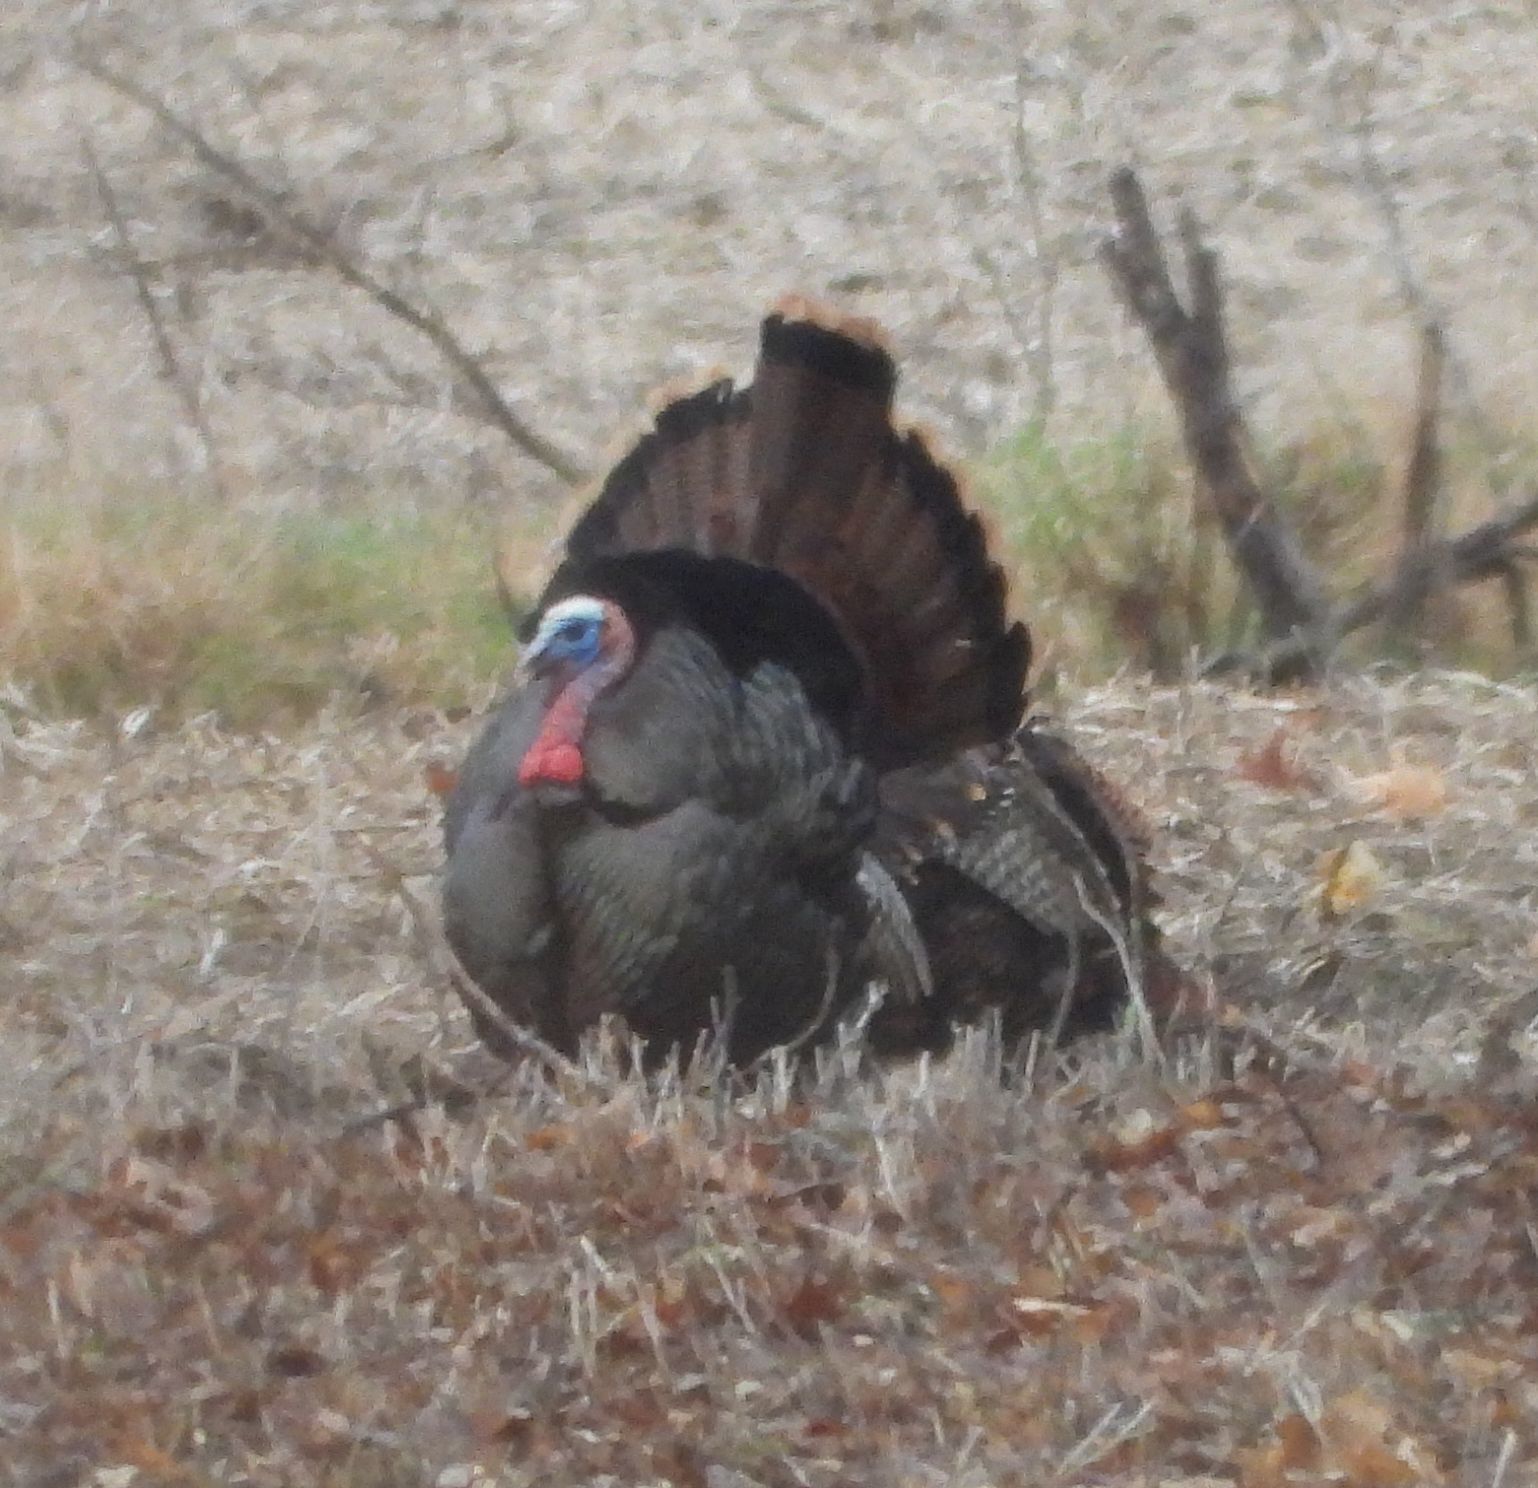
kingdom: Animalia
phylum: Chordata
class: Aves
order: Galliformes
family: Phasianidae
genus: Meleagris
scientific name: Meleagris gallopavo
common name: Wild turkey
